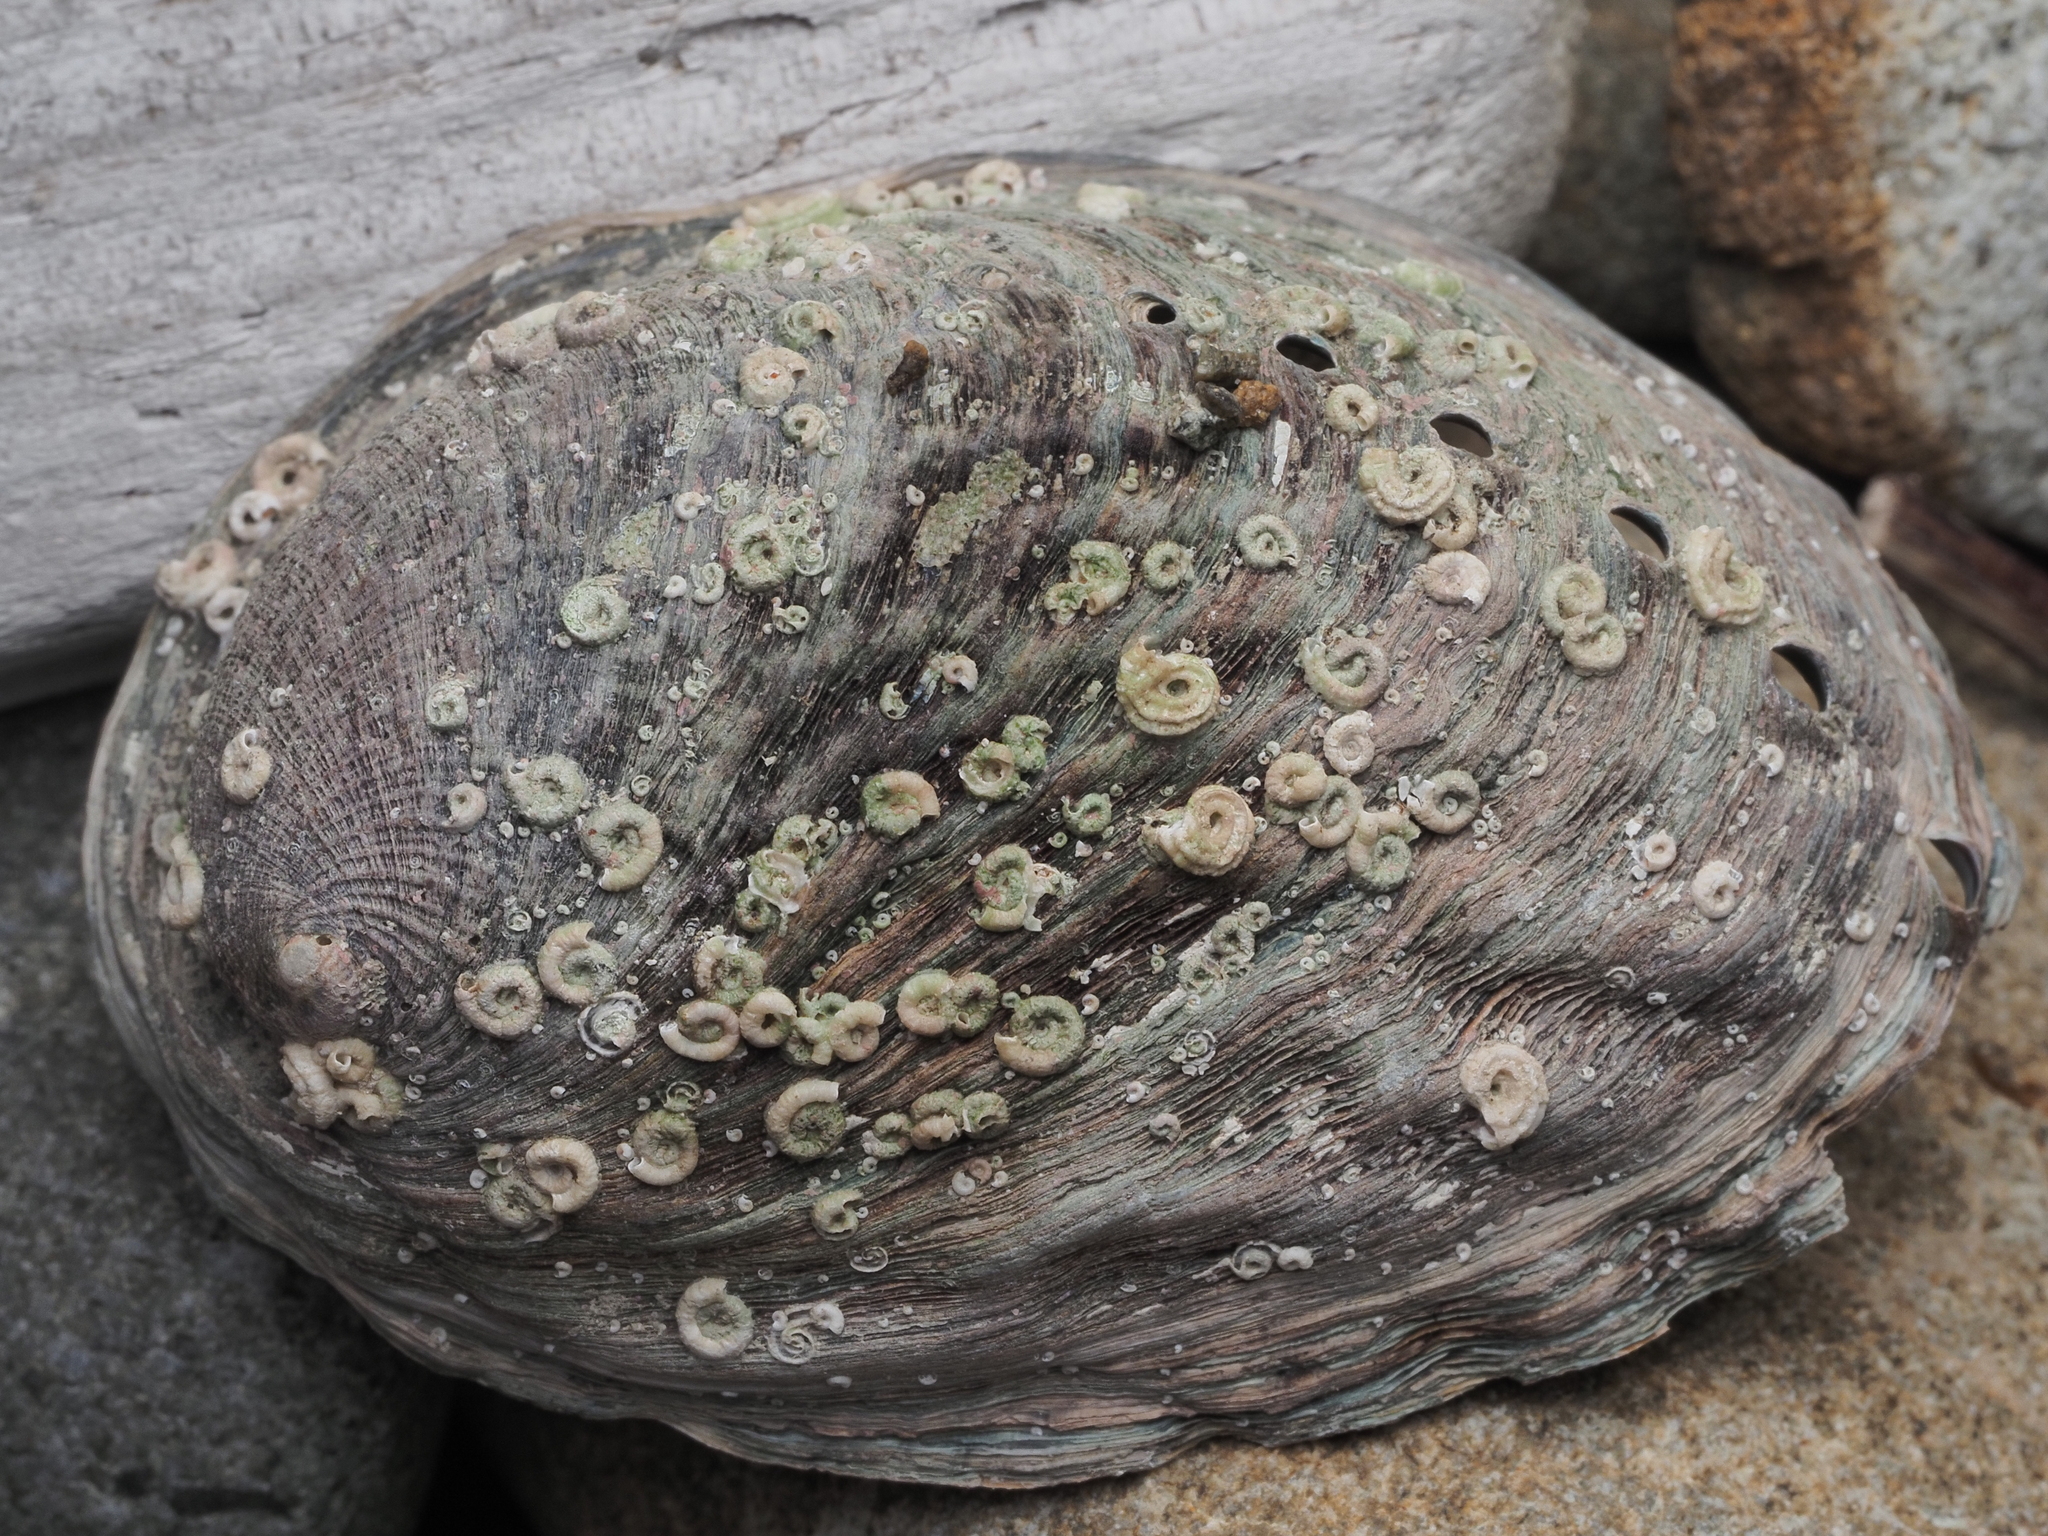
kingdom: Animalia
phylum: Mollusca
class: Gastropoda
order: Lepetellida
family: Haliotidae
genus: Haliotis
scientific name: Haliotis iris
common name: Abalone
